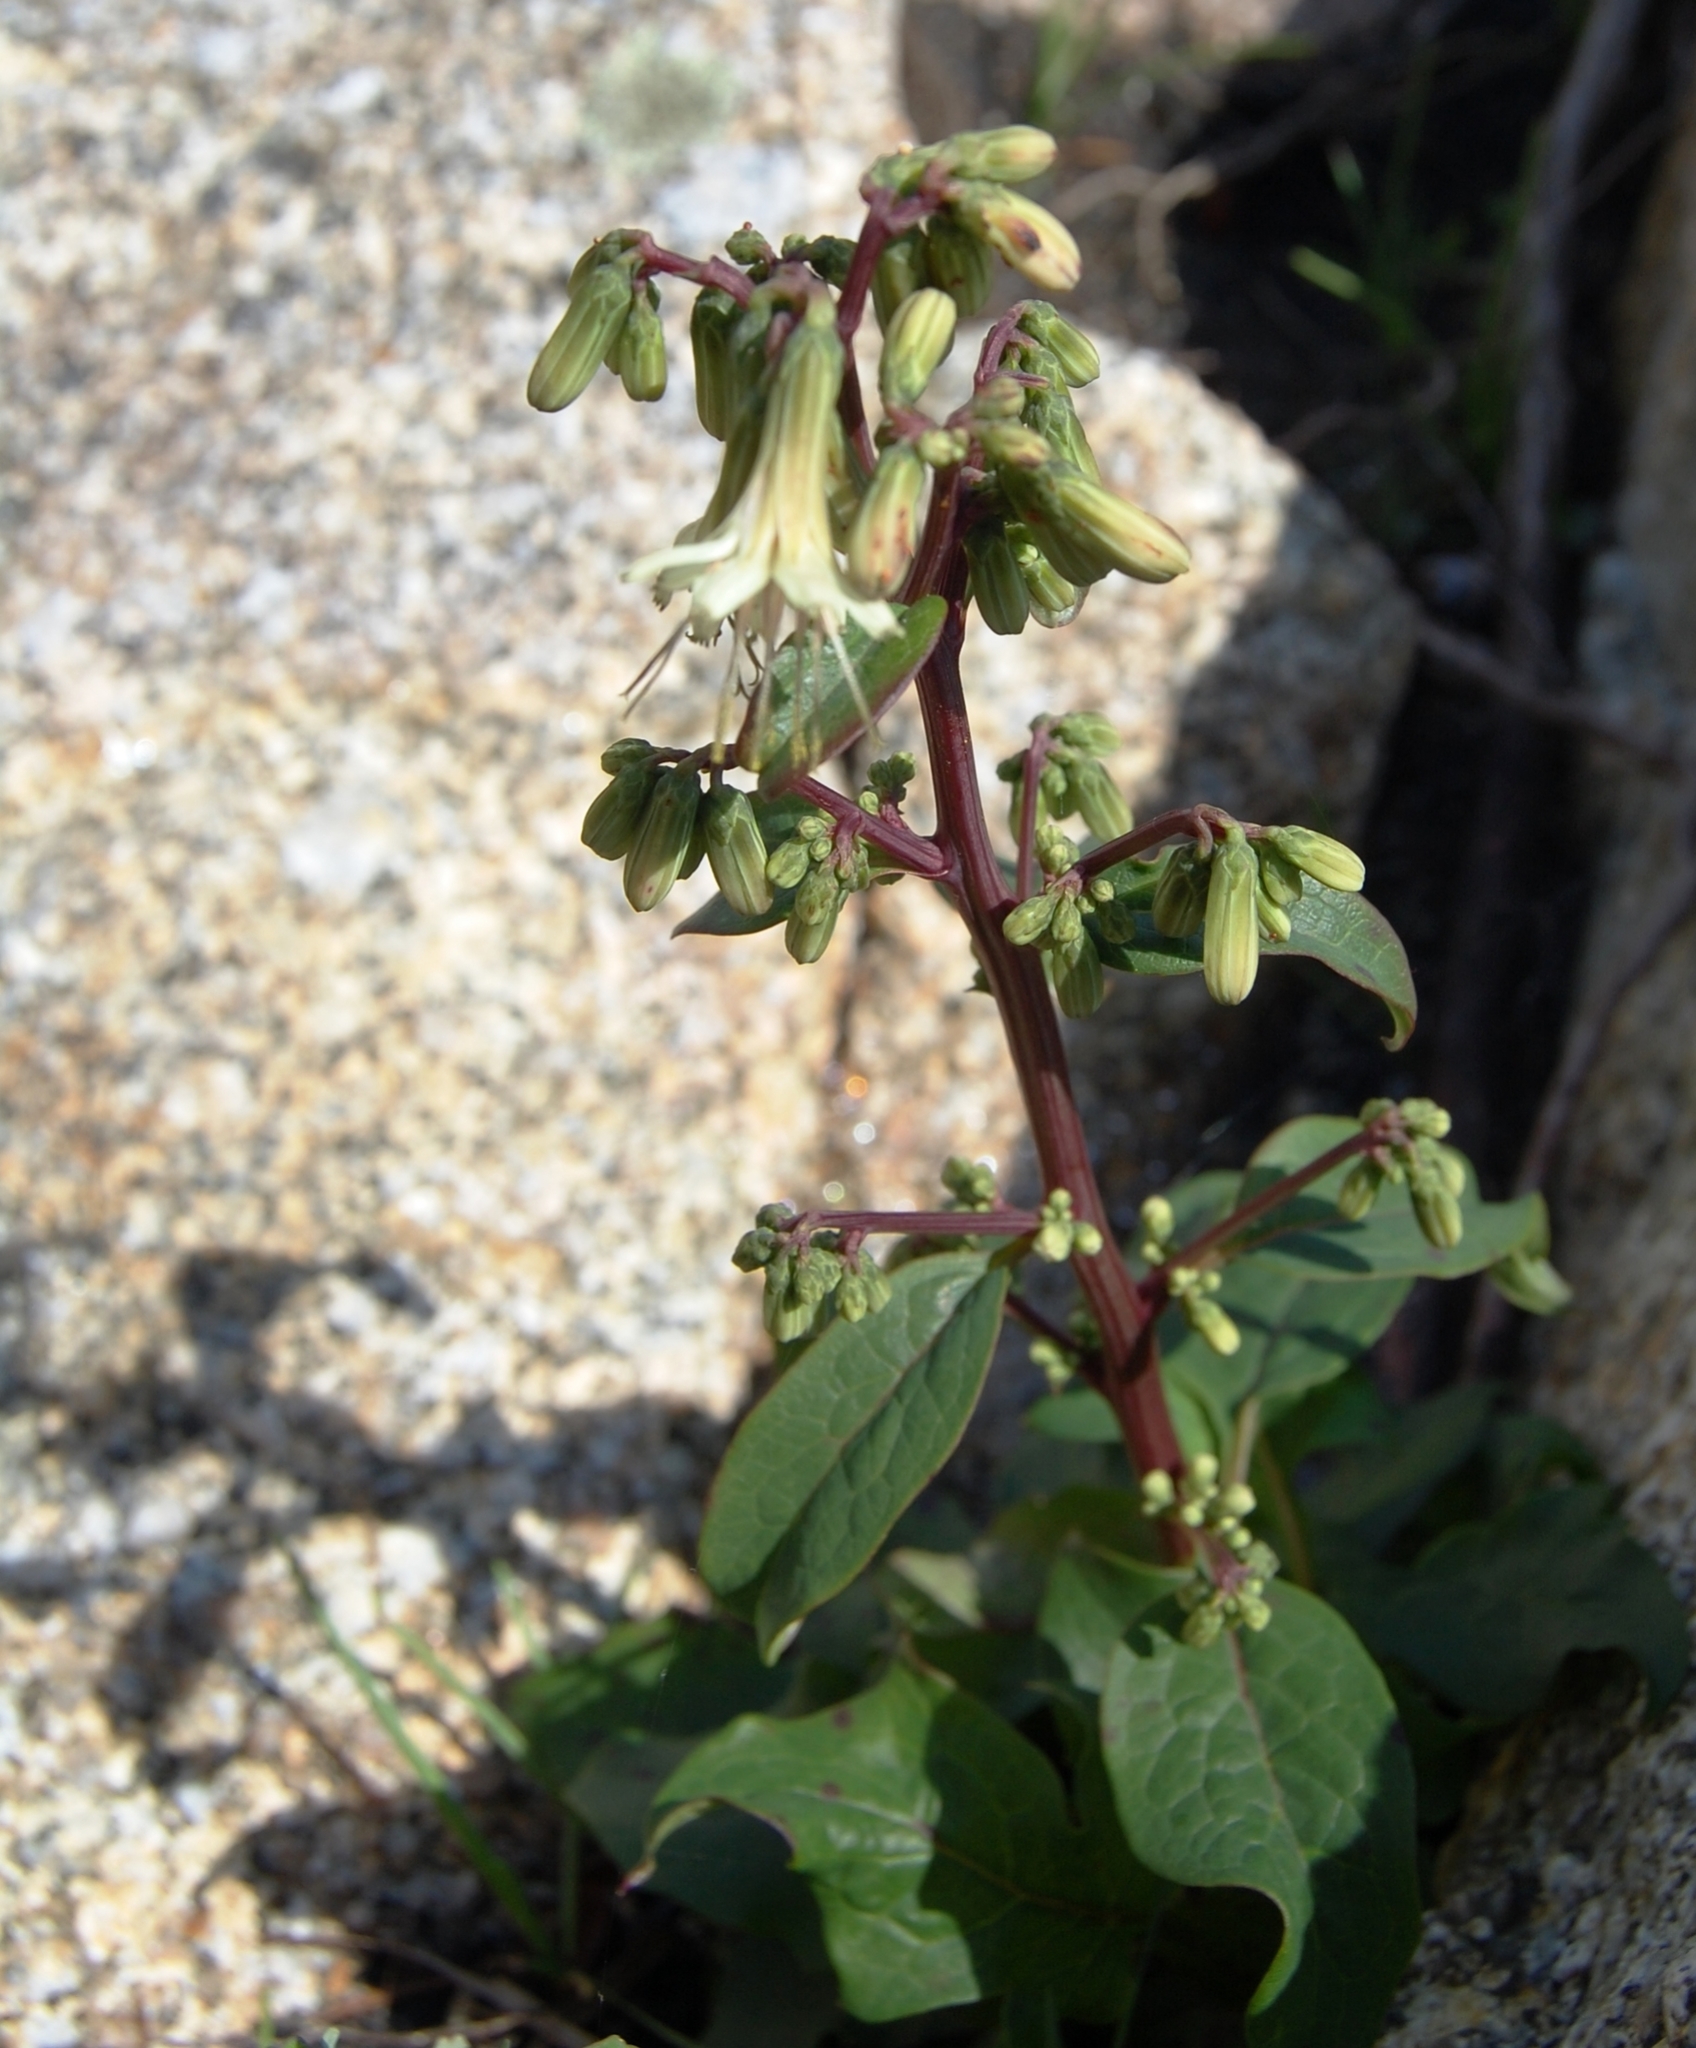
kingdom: Plantae
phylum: Tracheophyta
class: Magnoliopsida
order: Asterales
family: Asteraceae
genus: Nabalus
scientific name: Nabalus trifoliolatus
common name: Gall-of-the-earth
